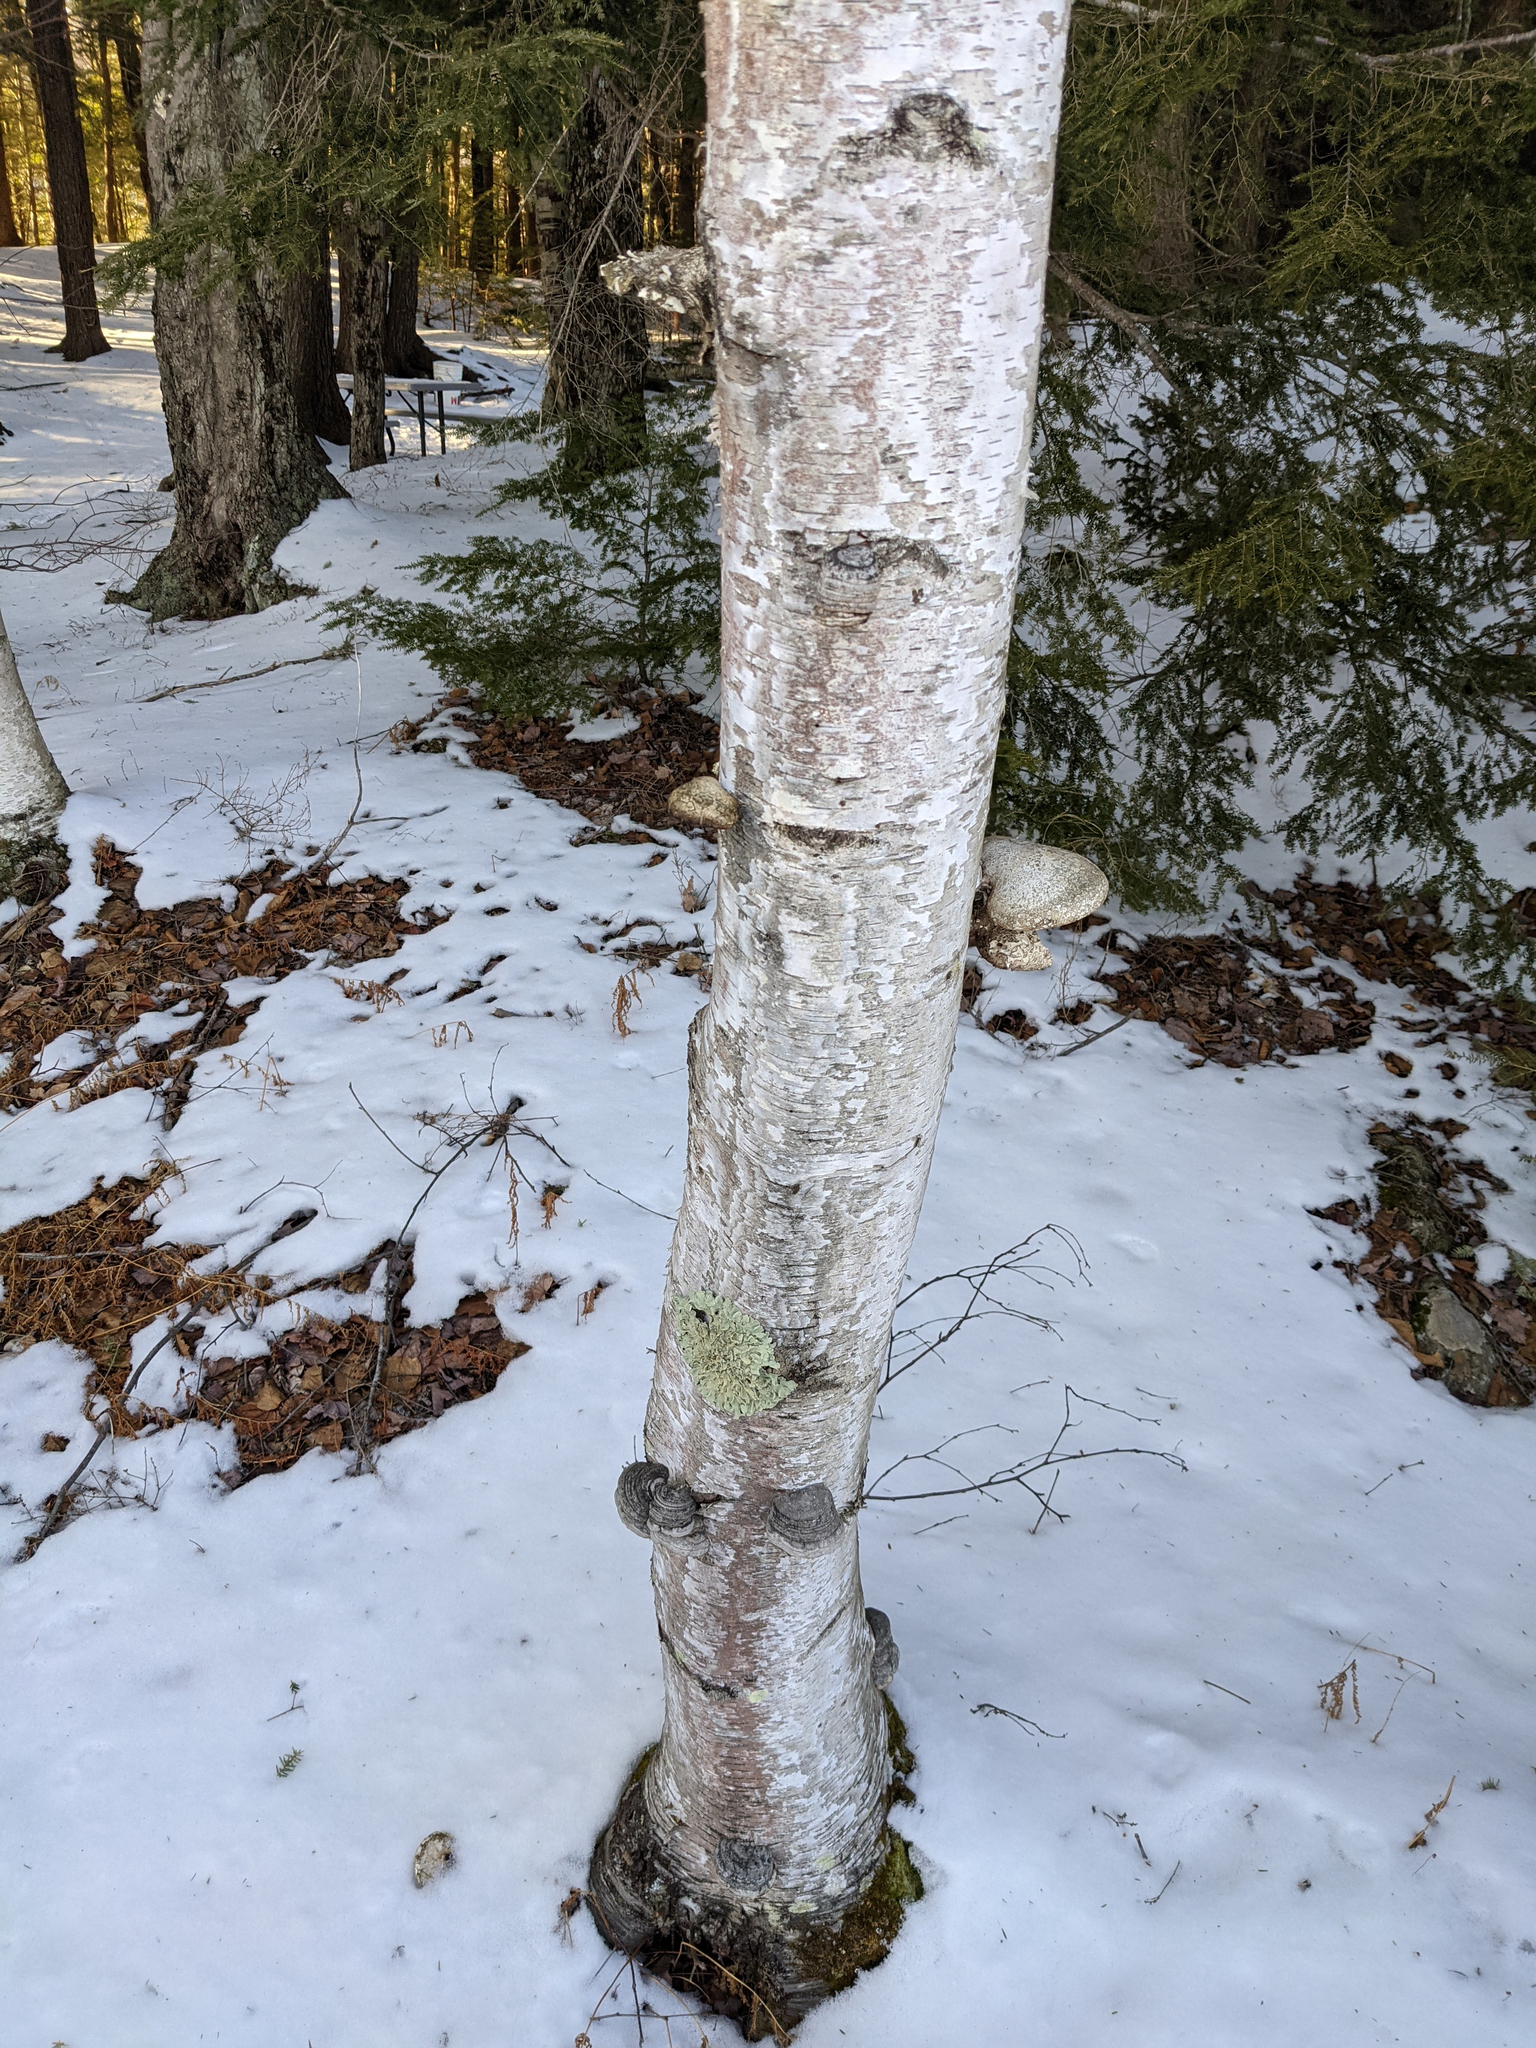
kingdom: Fungi
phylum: Basidiomycota
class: Agaricomycetes
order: Polyporales
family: Fomitopsidaceae
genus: Fomitopsis
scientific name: Fomitopsis betulina
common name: Birch polypore
